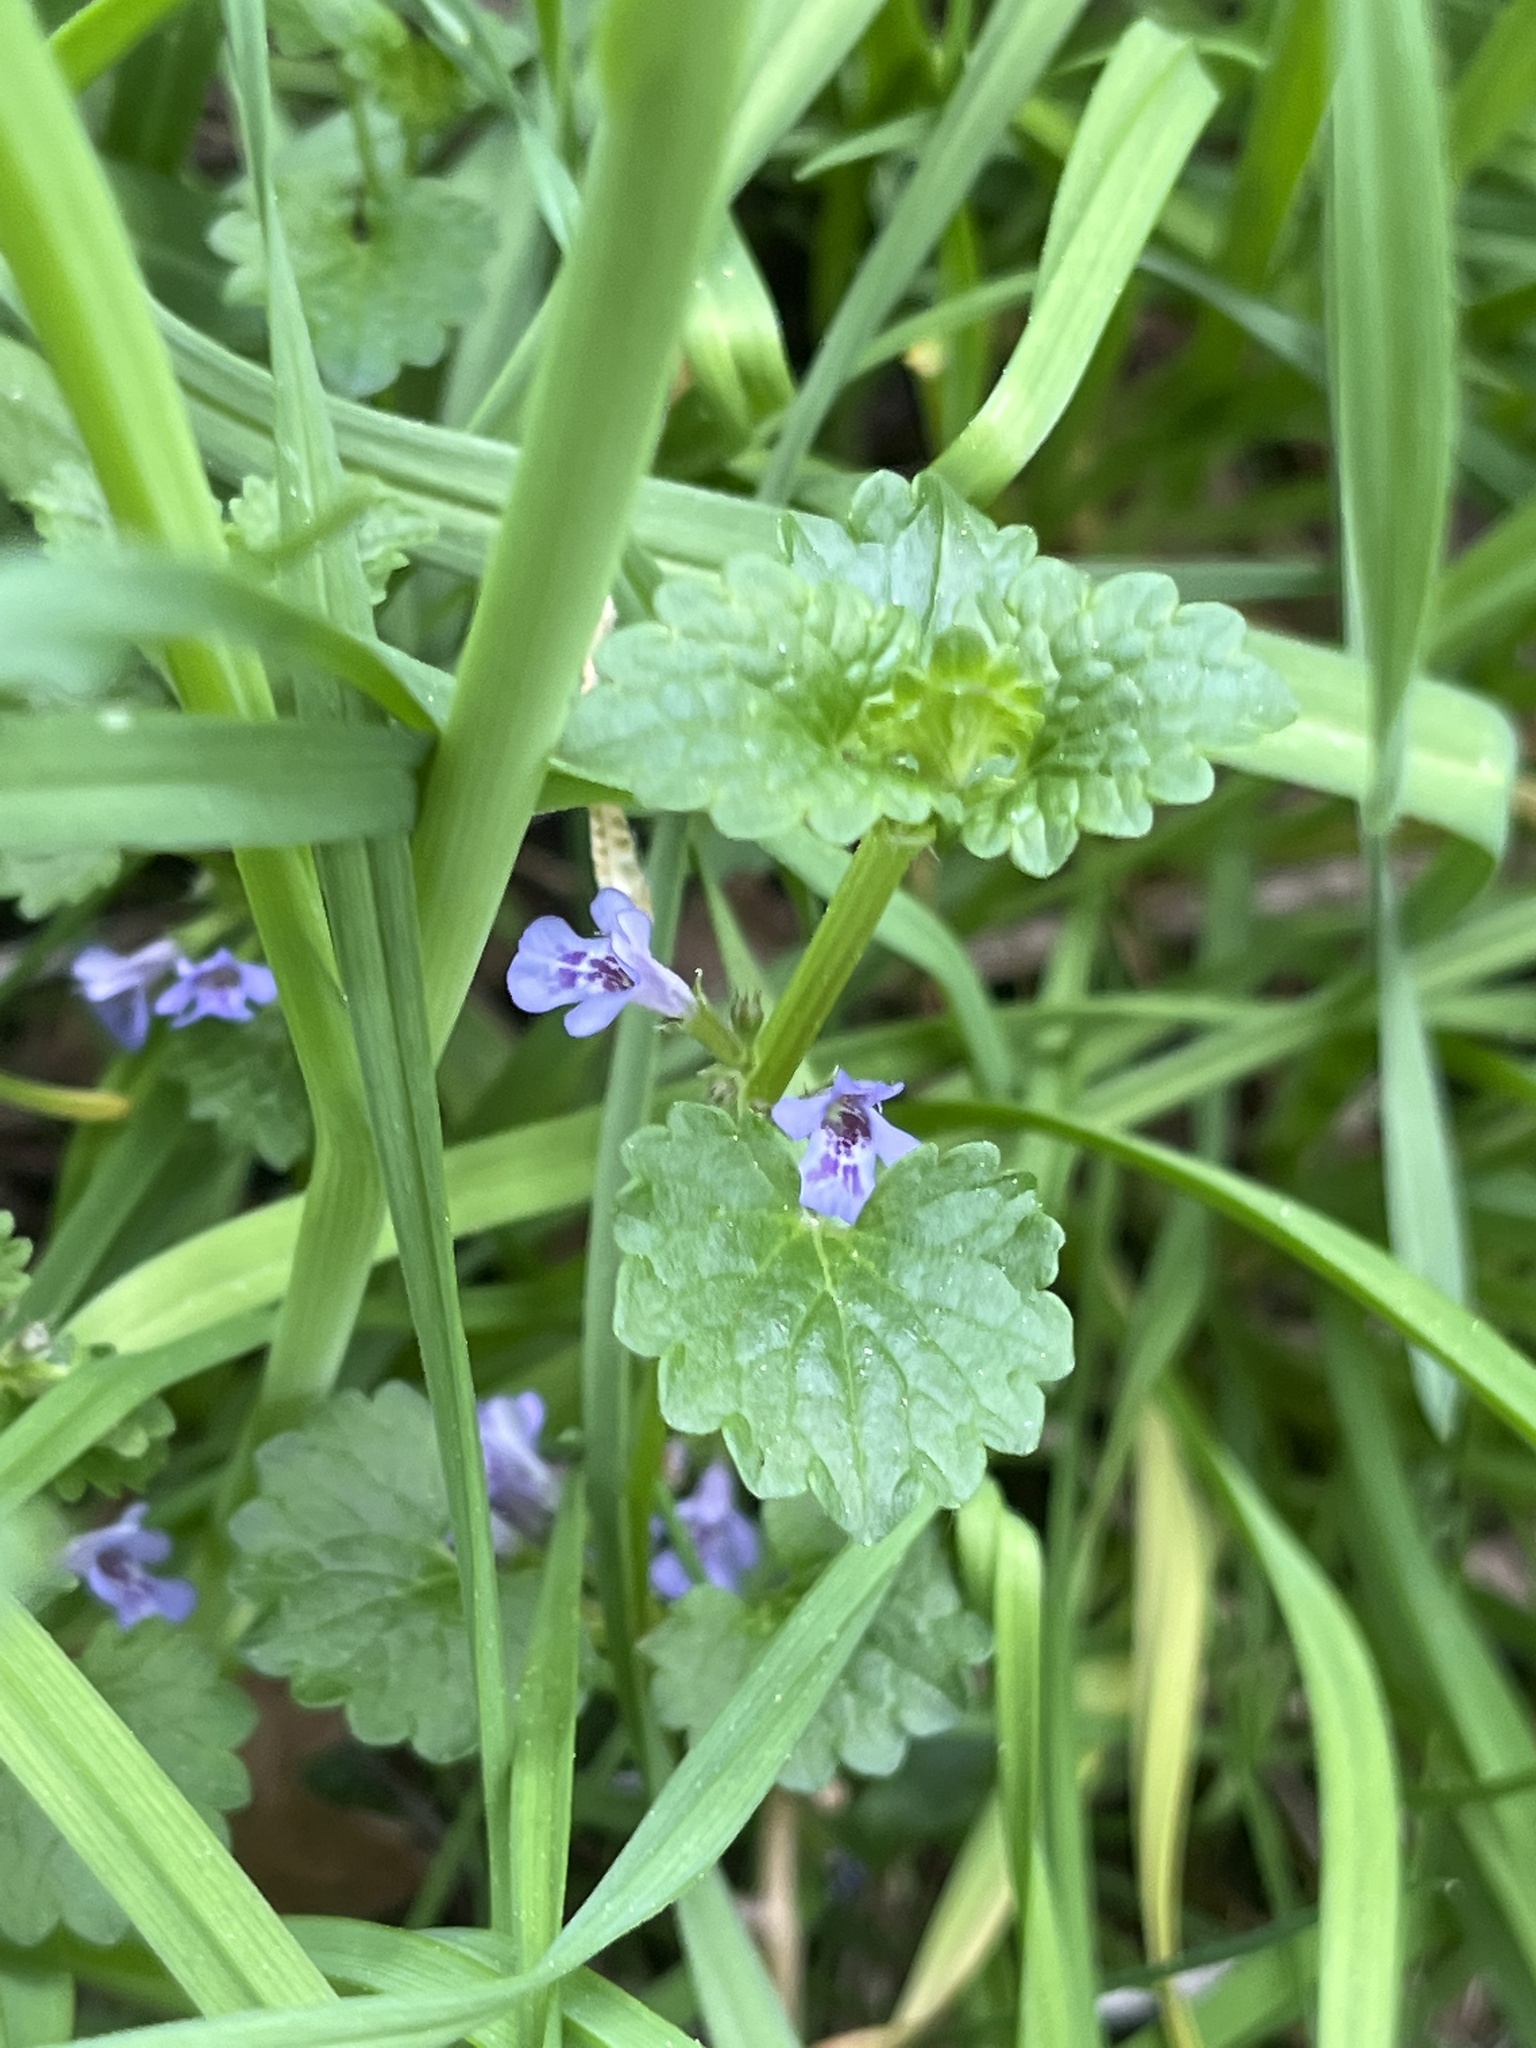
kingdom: Plantae
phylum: Tracheophyta
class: Magnoliopsida
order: Lamiales
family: Lamiaceae
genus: Glechoma
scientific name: Glechoma hederacea
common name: Ground ivy
